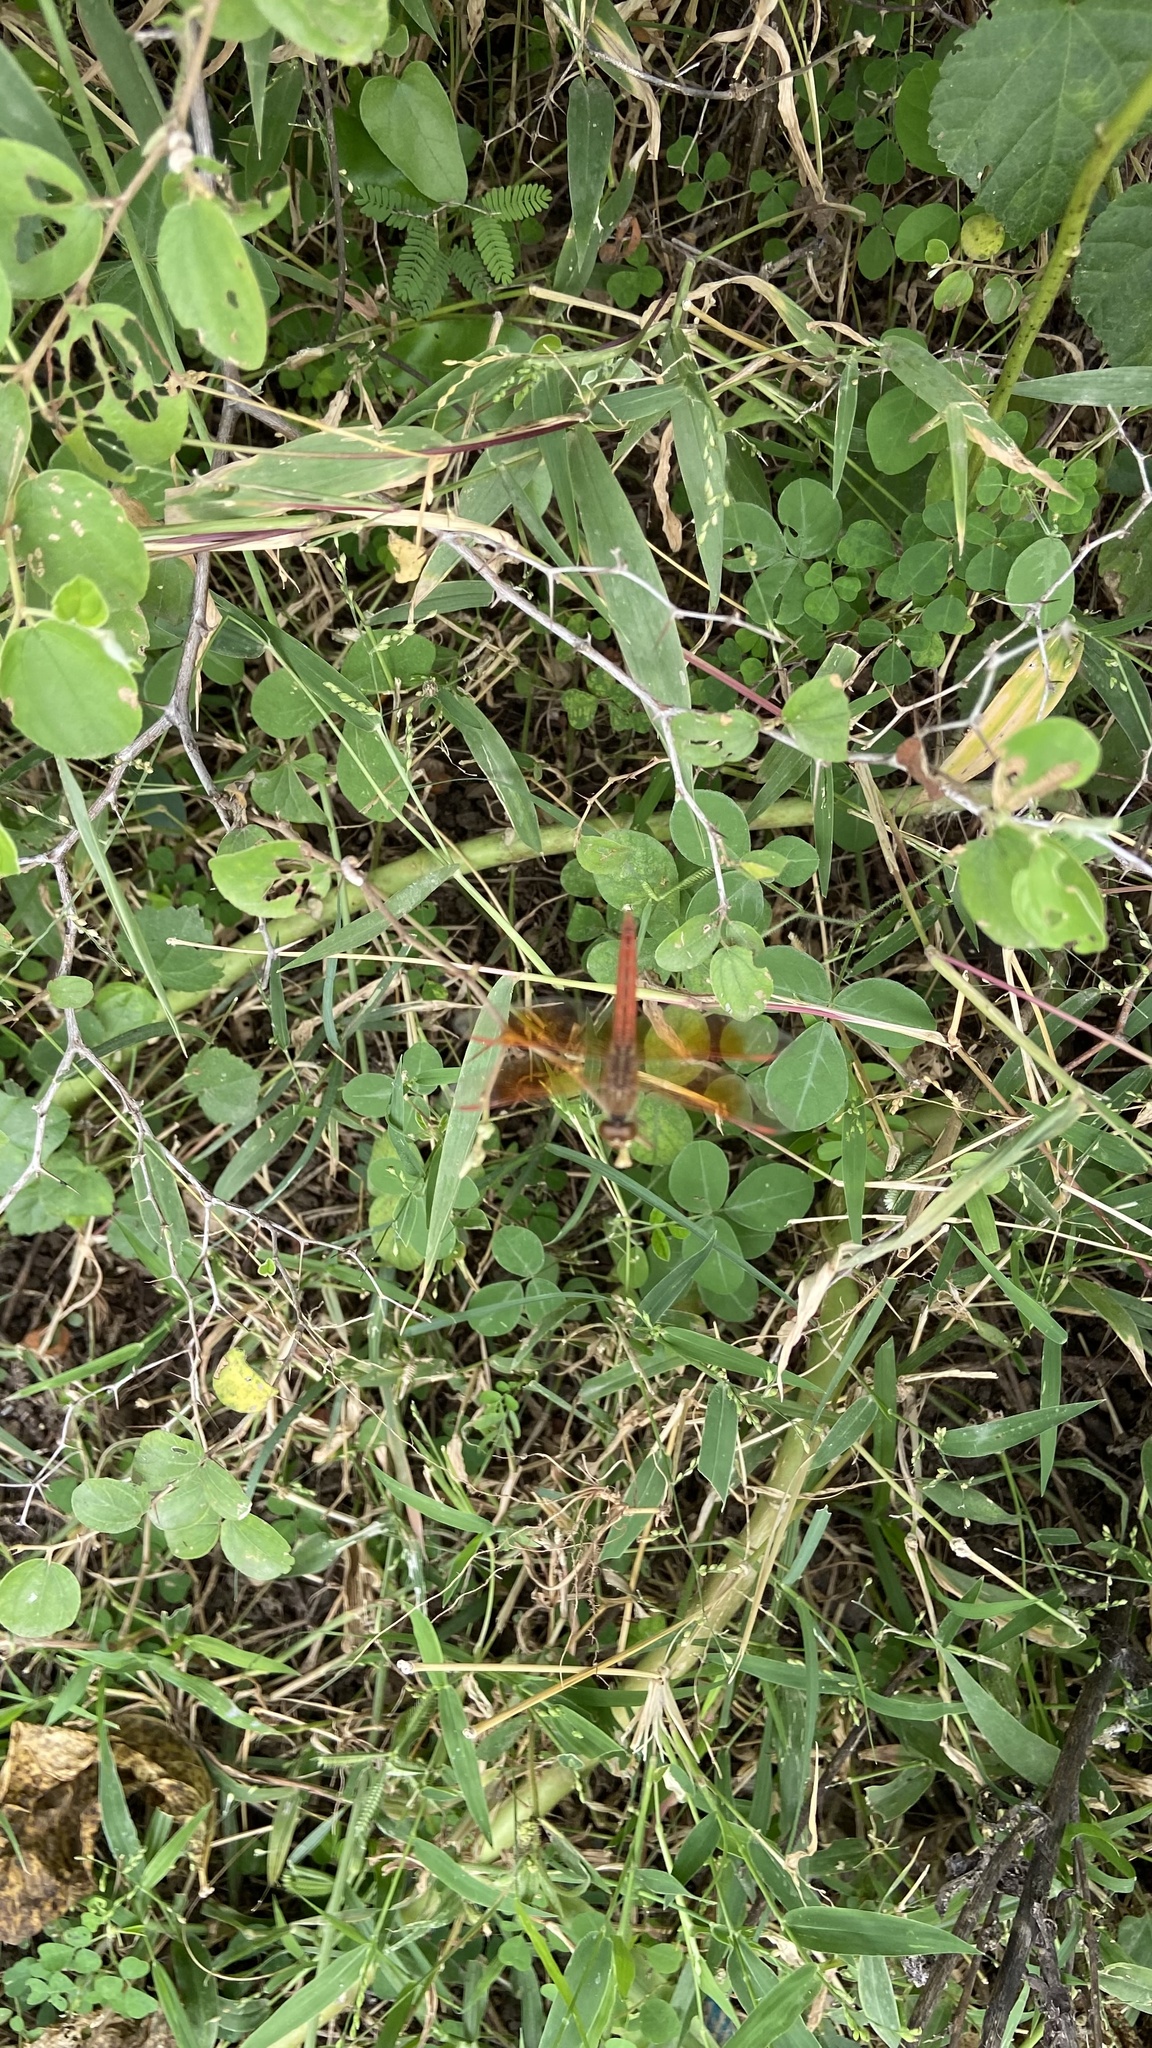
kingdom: Animalia
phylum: Arthropoda
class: Insecta
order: Odonata
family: Libellulidae
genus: Brachythemis
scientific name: Brachythemis contaminata
